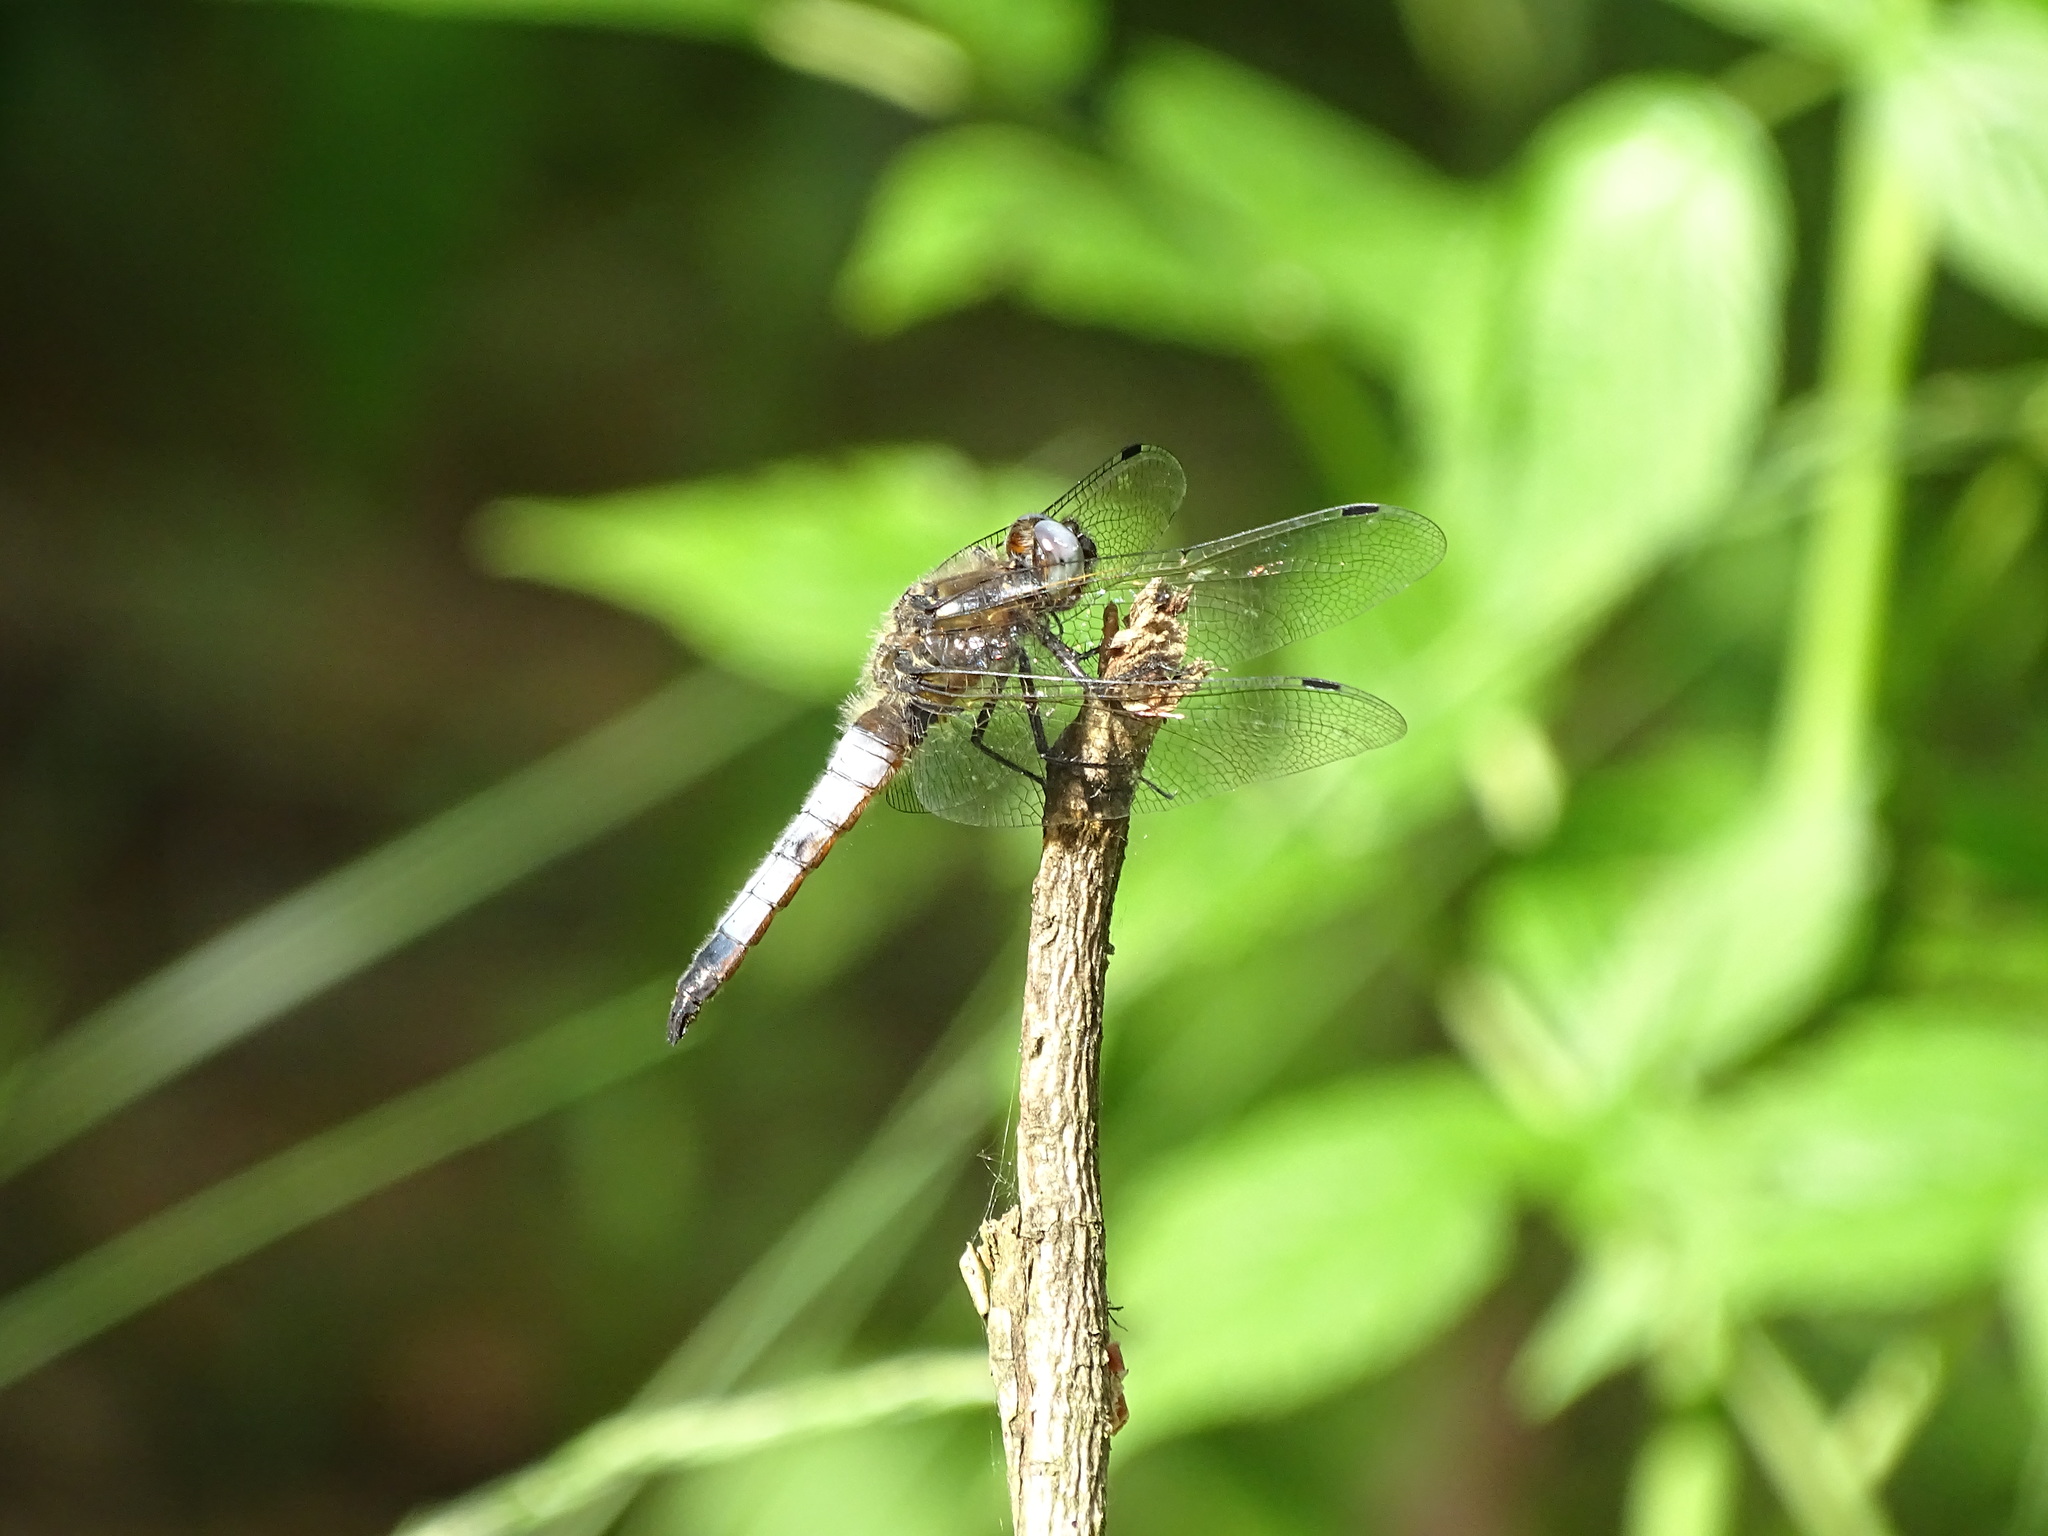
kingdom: Animalia
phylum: Arthropoda
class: Insecta
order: Odonata
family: Libellulidae
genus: Libellula
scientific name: Libellula fulva
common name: Blue chaser
